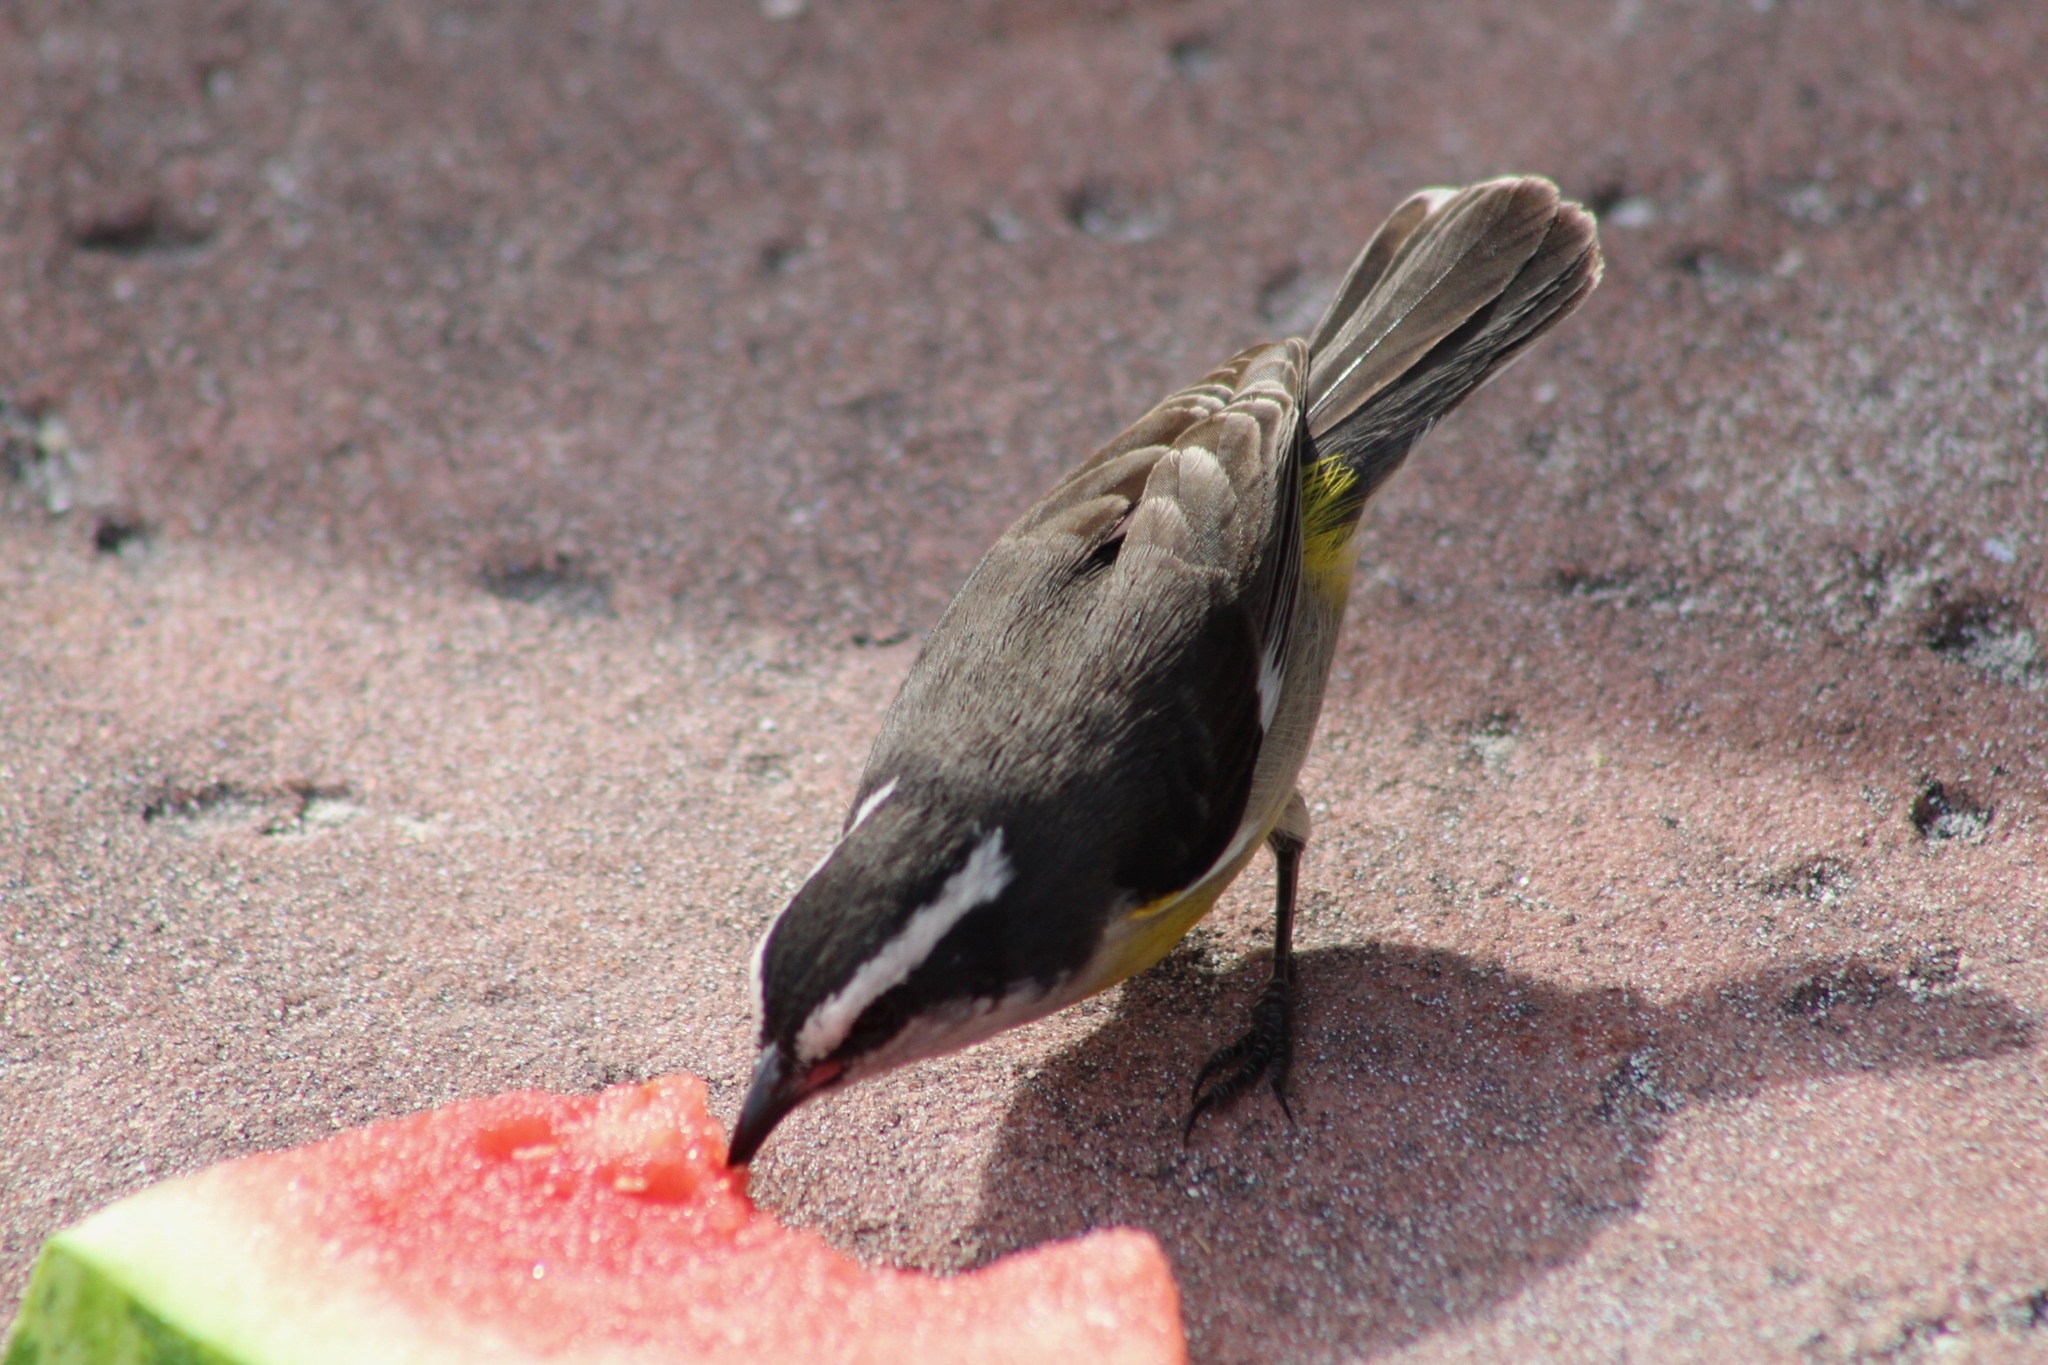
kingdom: Animalia
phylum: Chordata
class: Aves
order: Passeriformes
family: Thraupidae
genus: Coereba
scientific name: Coereba flaveola
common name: Bananaquit
